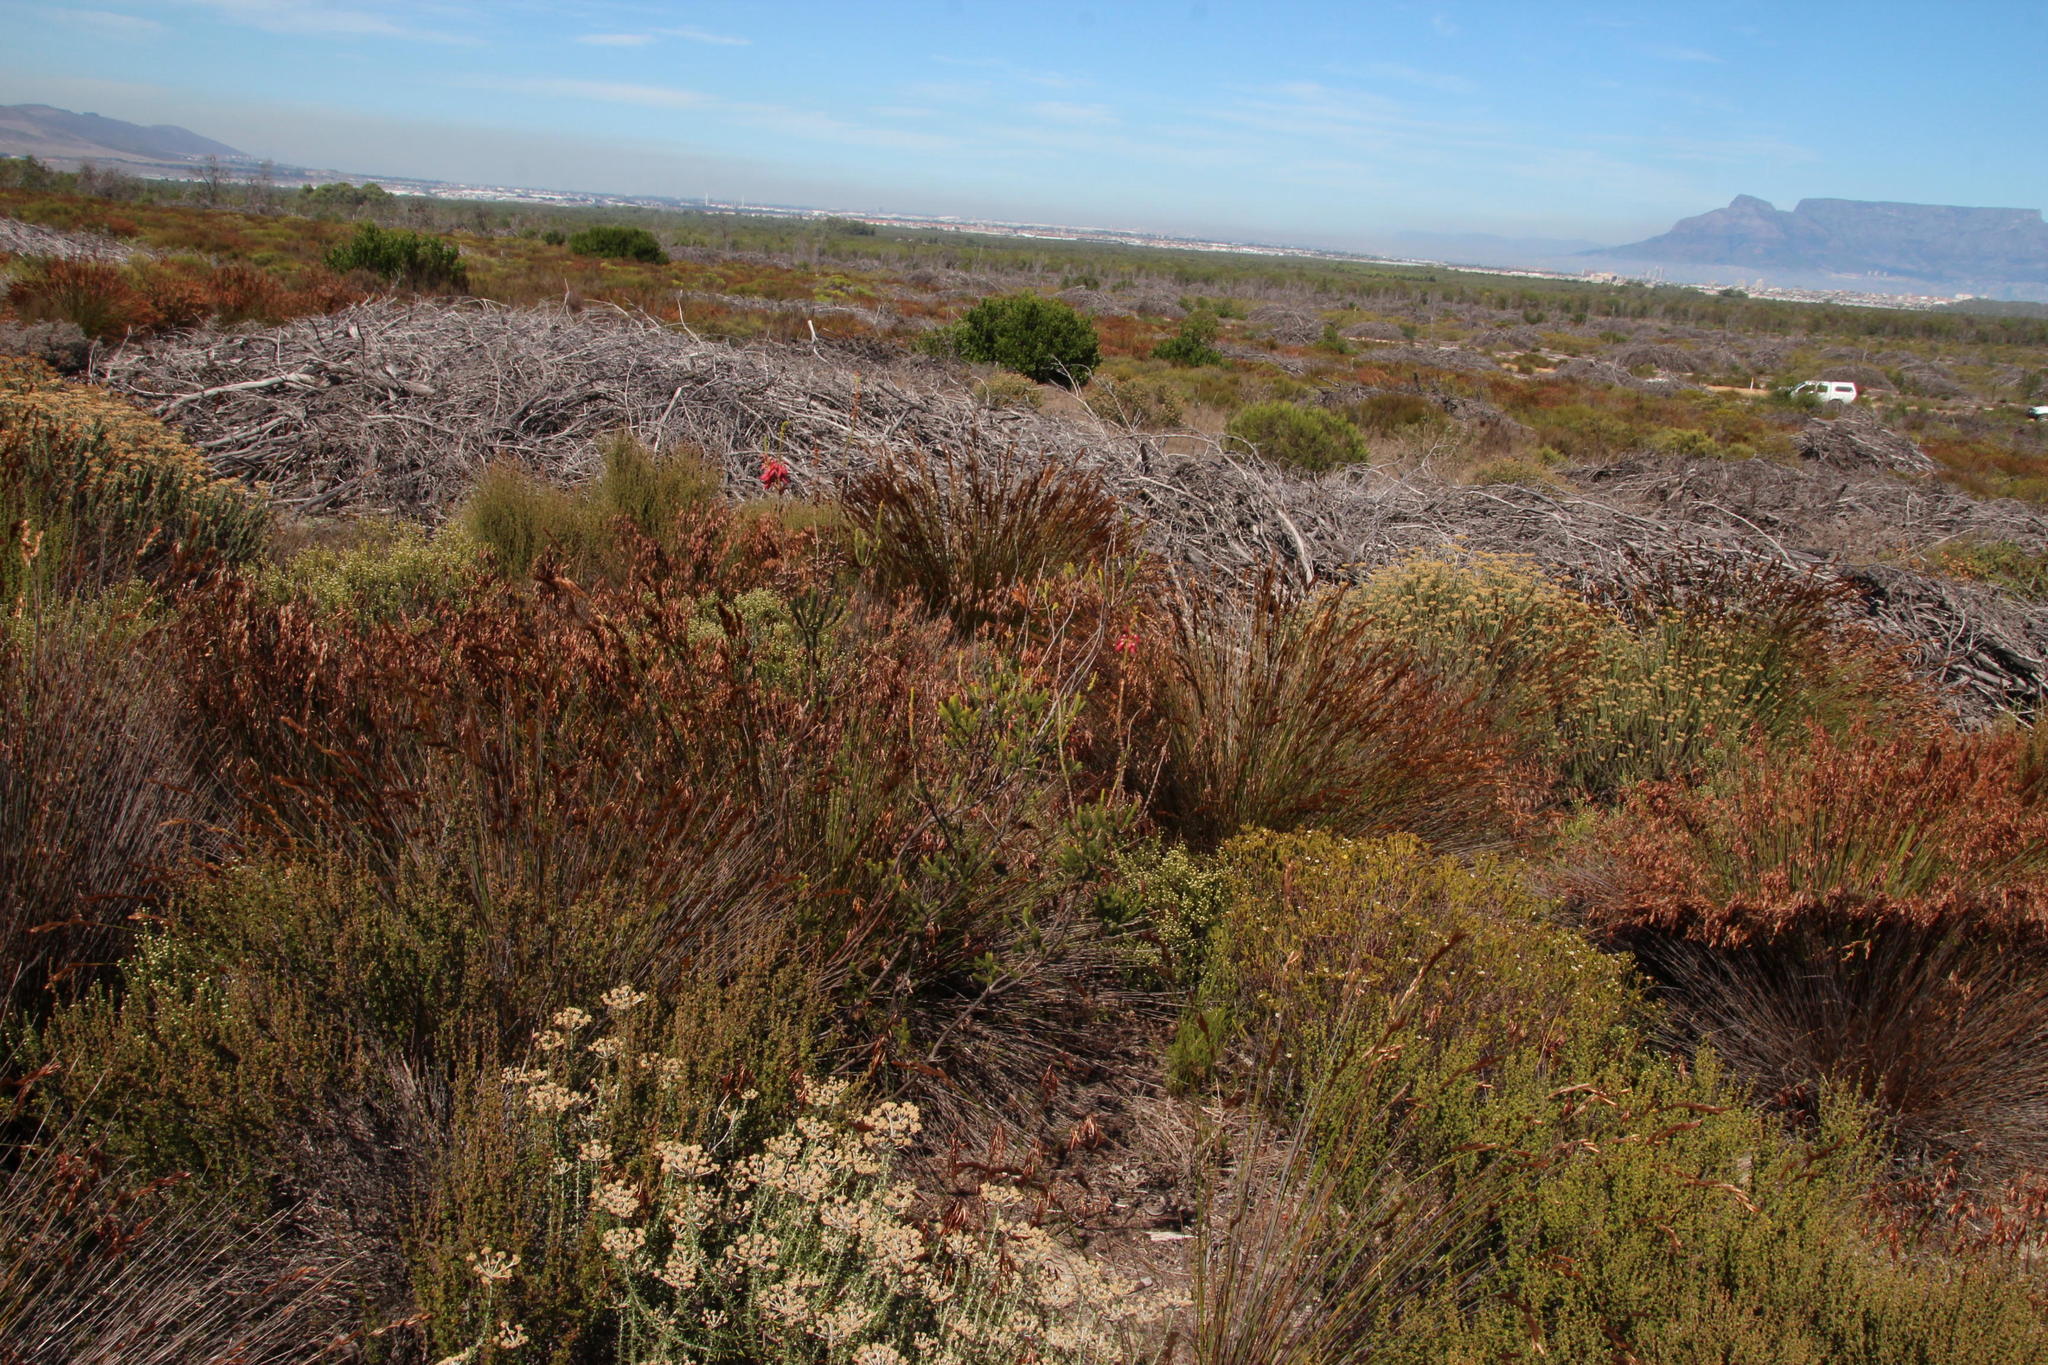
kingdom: Plantae
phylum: Tracheophyta
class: Magnoliopsida
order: Ericales
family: Ericaceae
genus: Erica
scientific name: Erica mammosa
